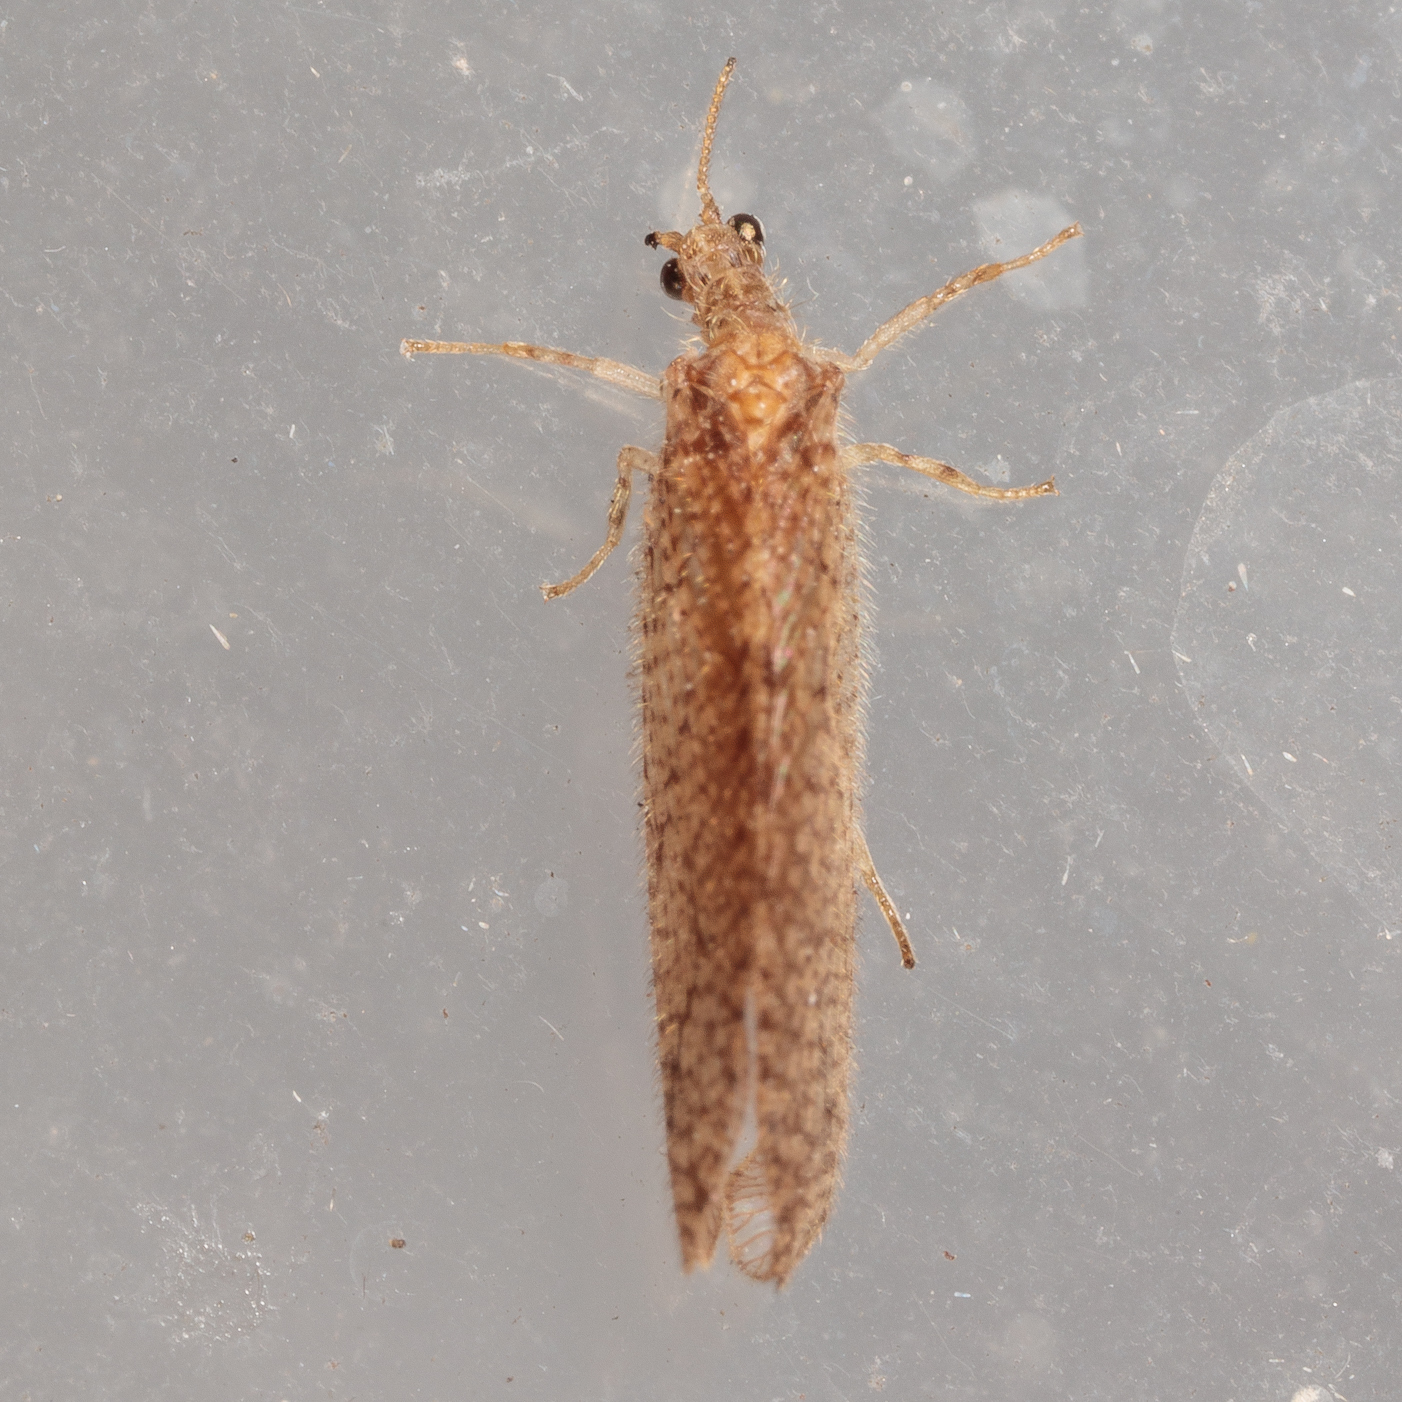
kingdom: Animalia
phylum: Arthropoda
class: Insecta
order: Neuroptera
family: Hemerobiidae
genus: Micromus
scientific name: Micromus posticus
